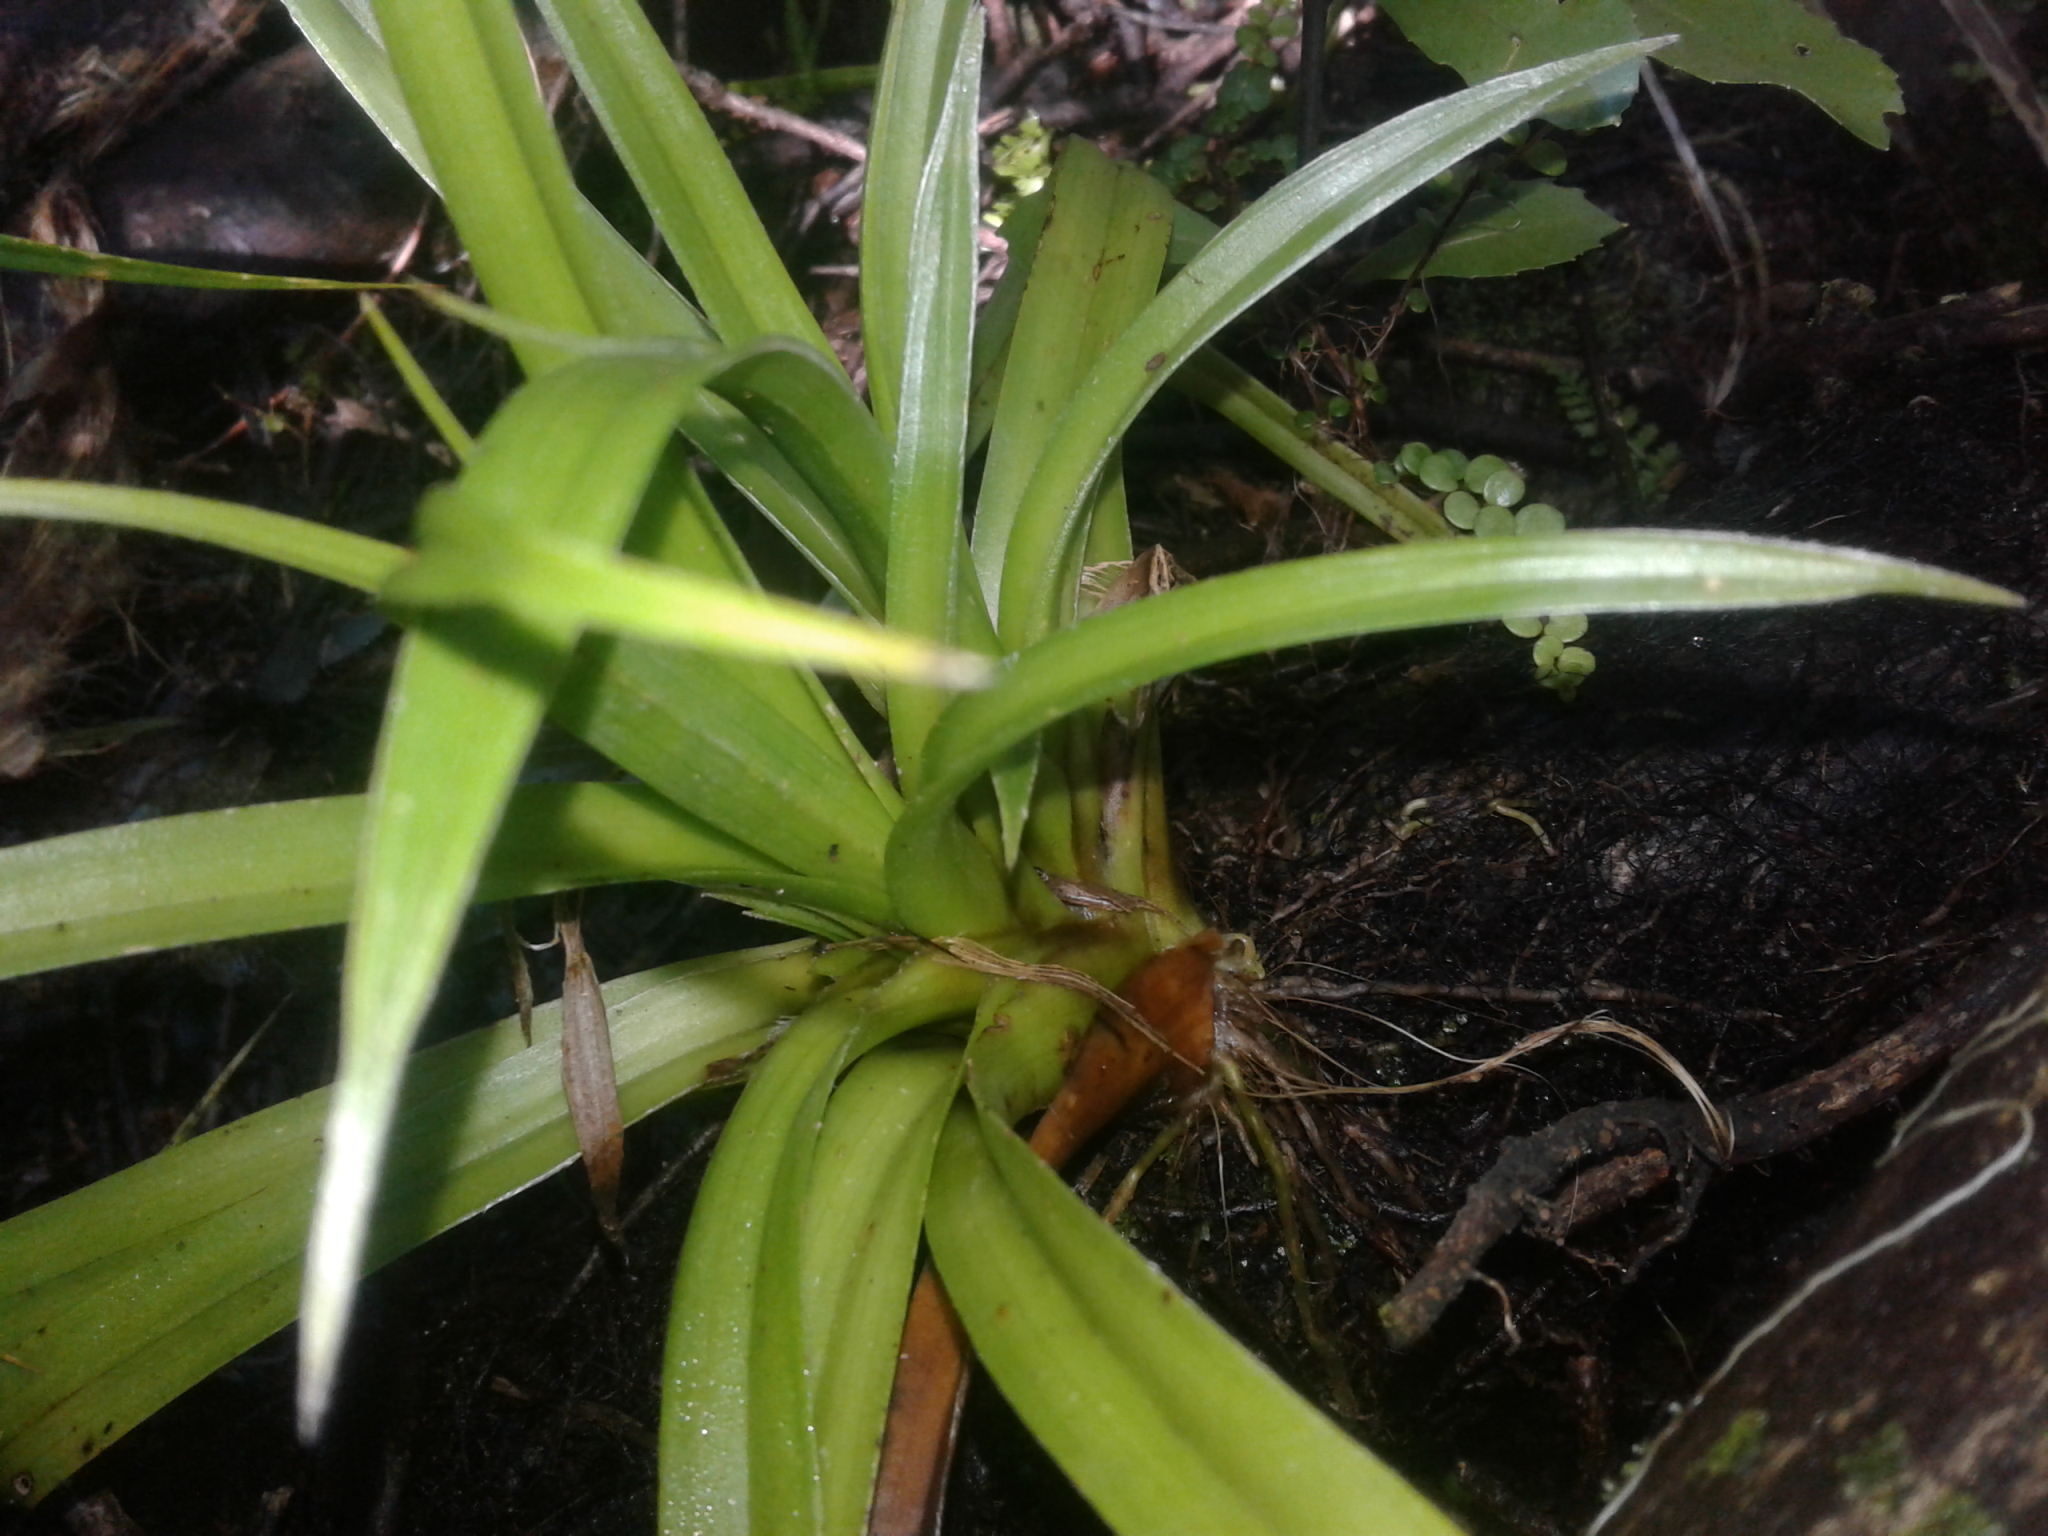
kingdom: Plantae
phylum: Tracheophyta
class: Liliopsida
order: Asparagales
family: Asteliaceae
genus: Astelia
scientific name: Astelia hastata
